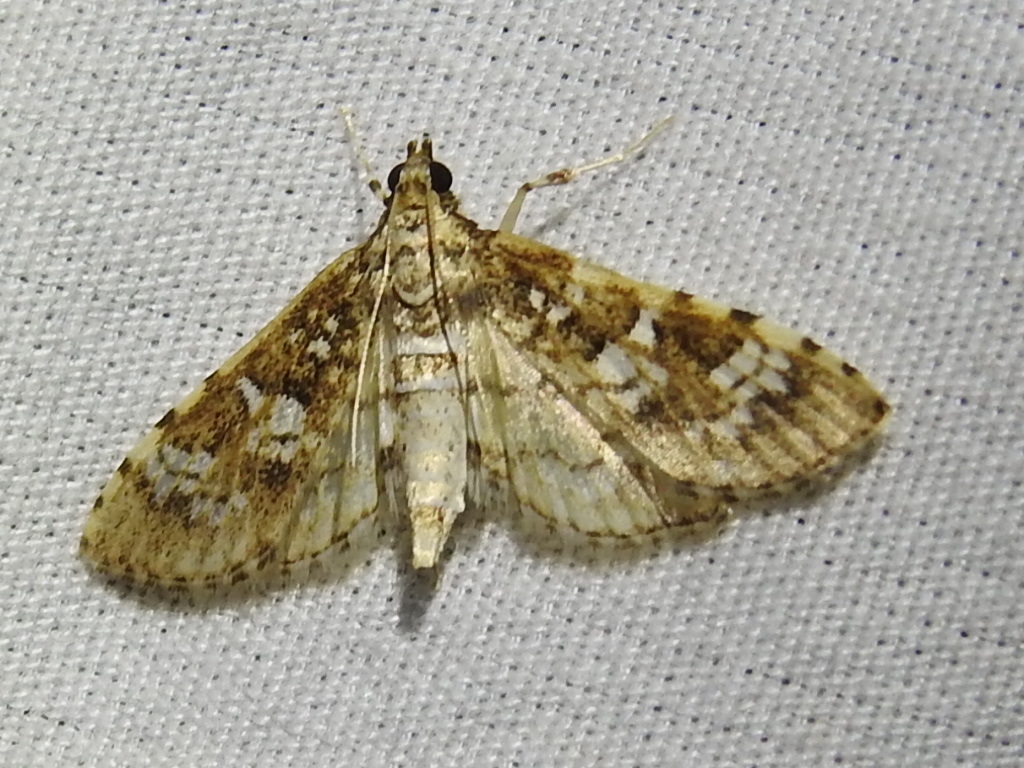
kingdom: Animalia
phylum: Arthropoda
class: Insecta
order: Lepidoptera
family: Crambidae
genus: Samea
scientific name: Samea ecclesialis
